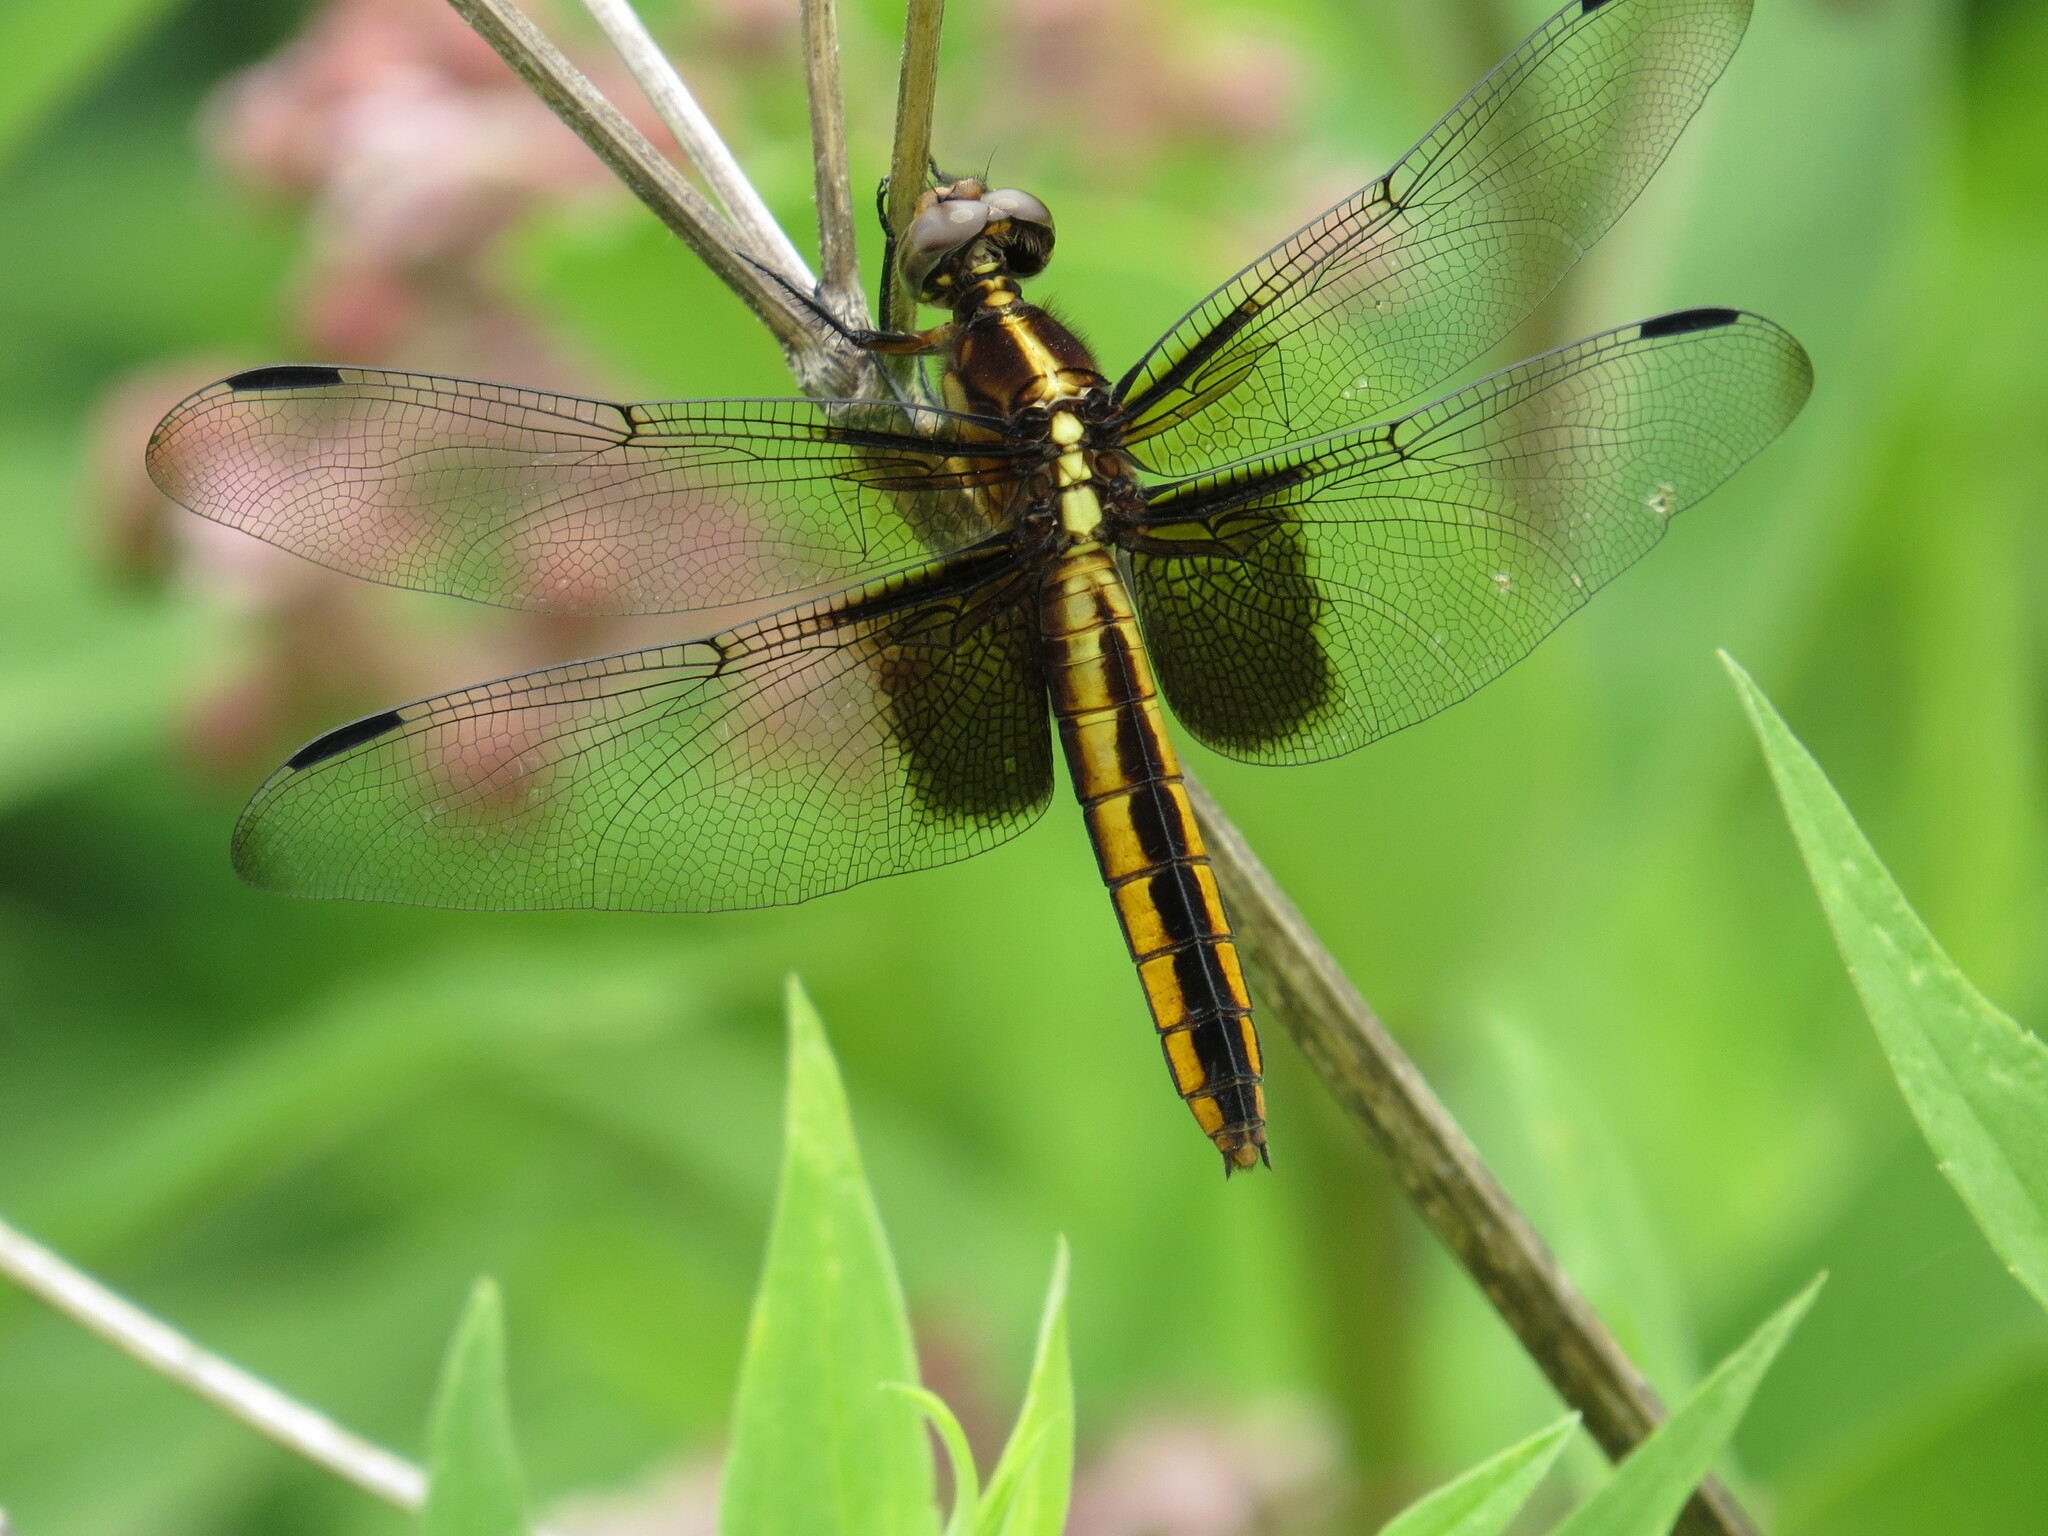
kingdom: Animalia
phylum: Arthropoda
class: Insecta
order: Odonata
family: Libellulidae
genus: Libellula
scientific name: Libellula luctuosa
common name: Widow skimmer
